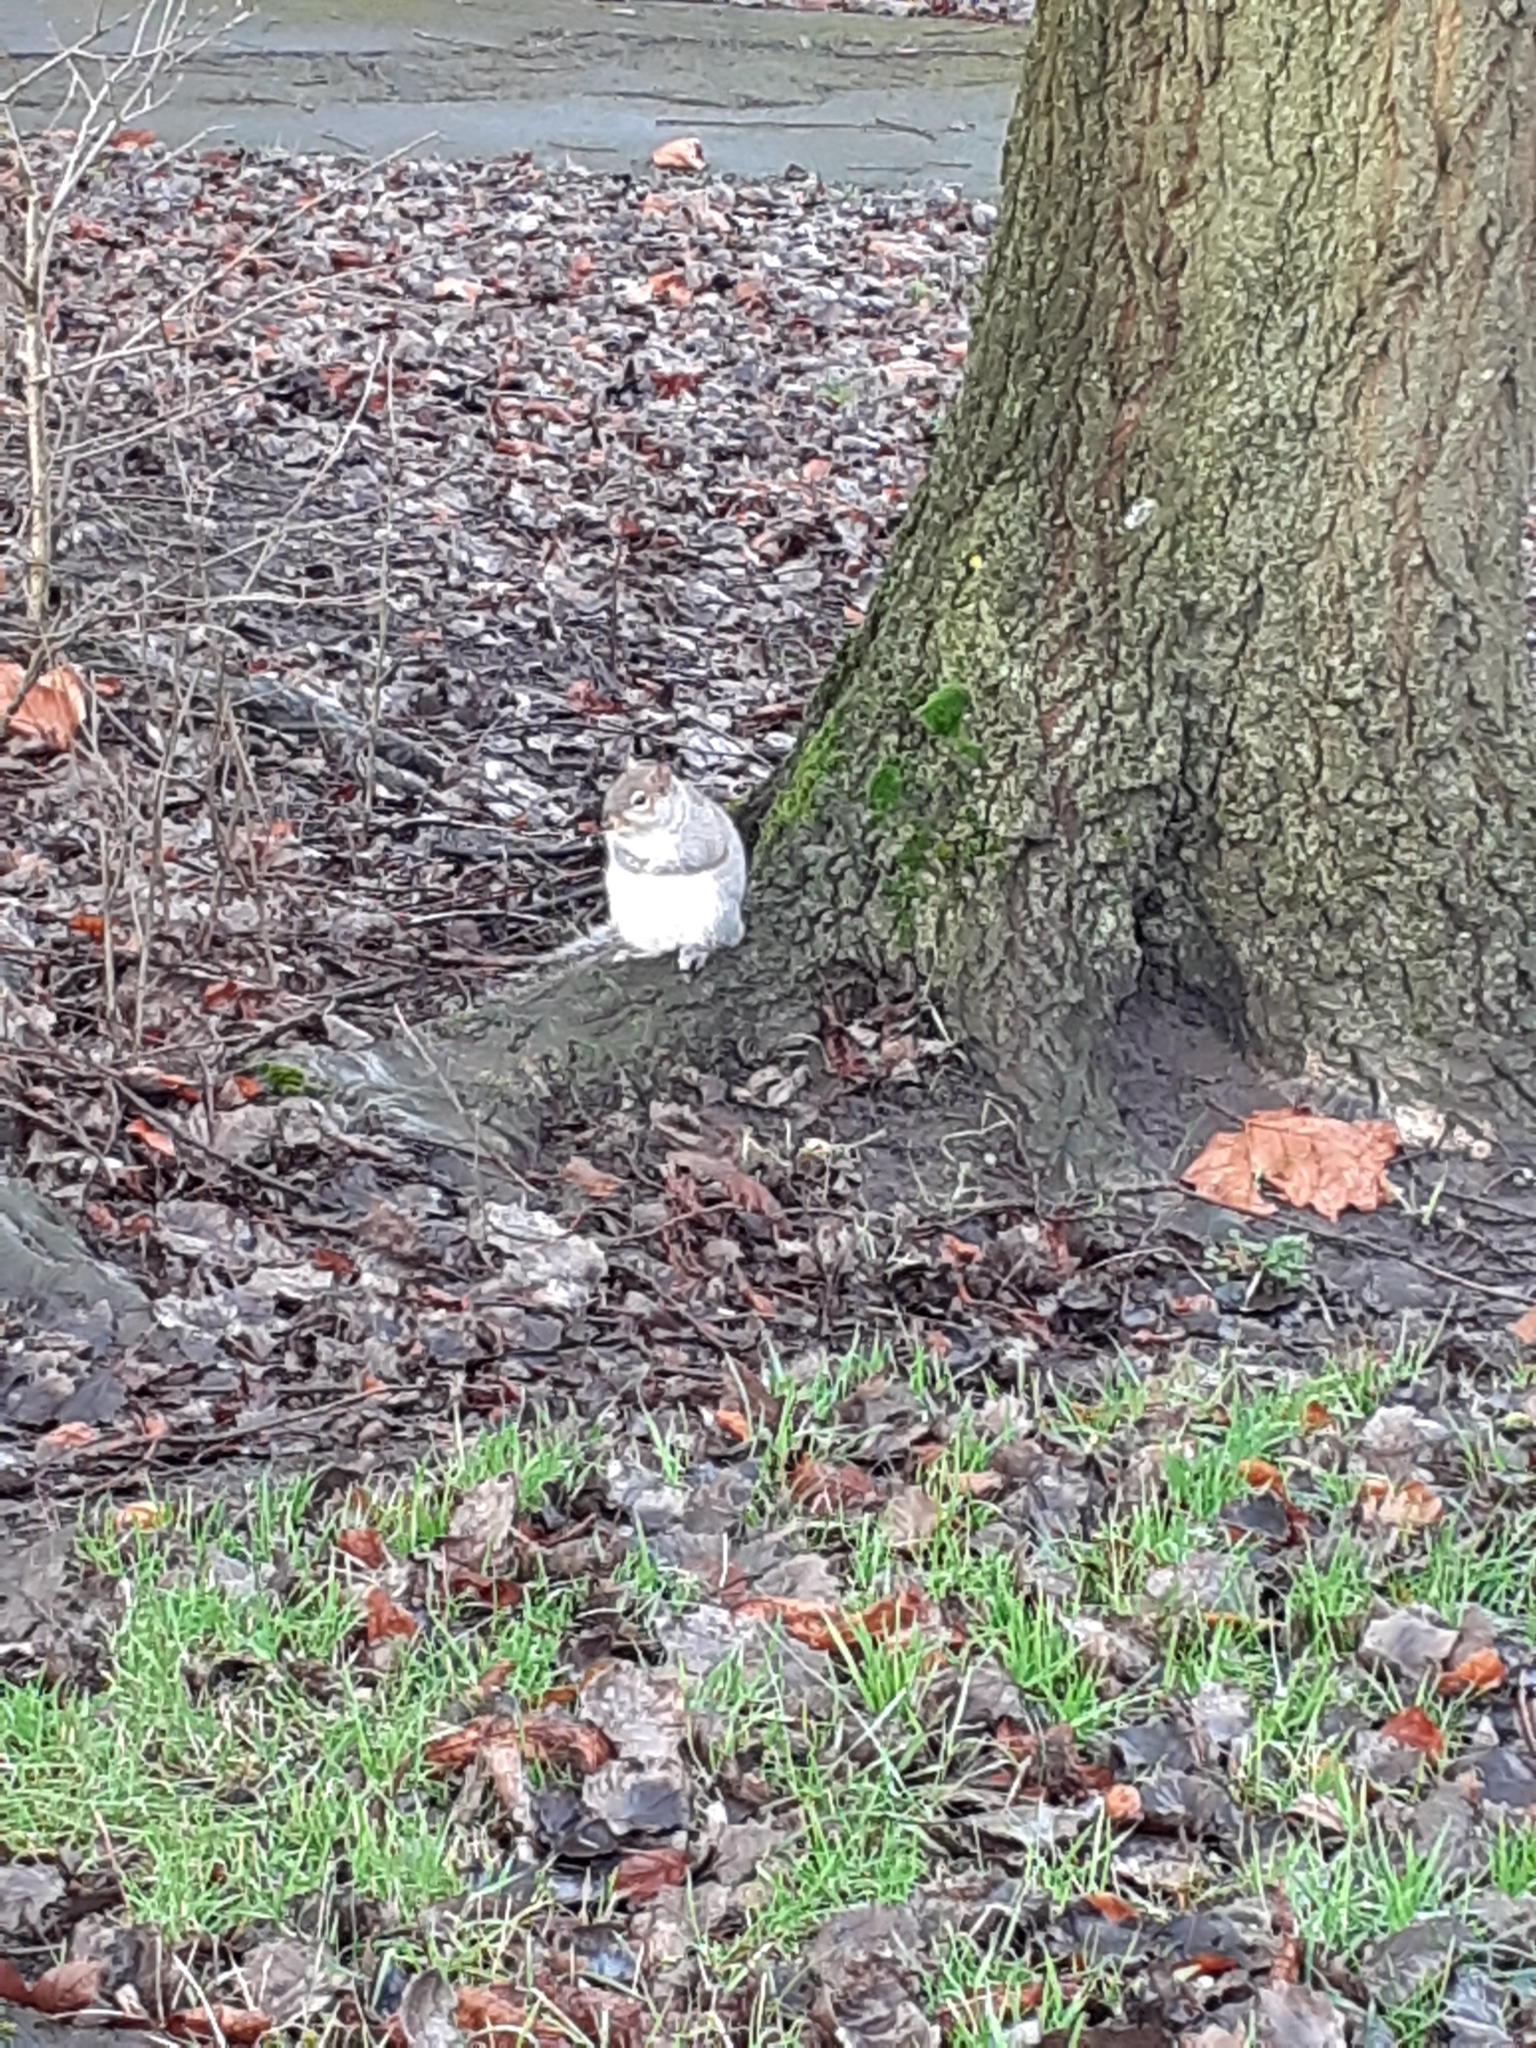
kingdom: Animalia
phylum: Chordata
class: Mammalia
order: Rodentia
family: Sciuridae
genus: Sciurus
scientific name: Sciurus carolinensis
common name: Eastern gray squirrel
